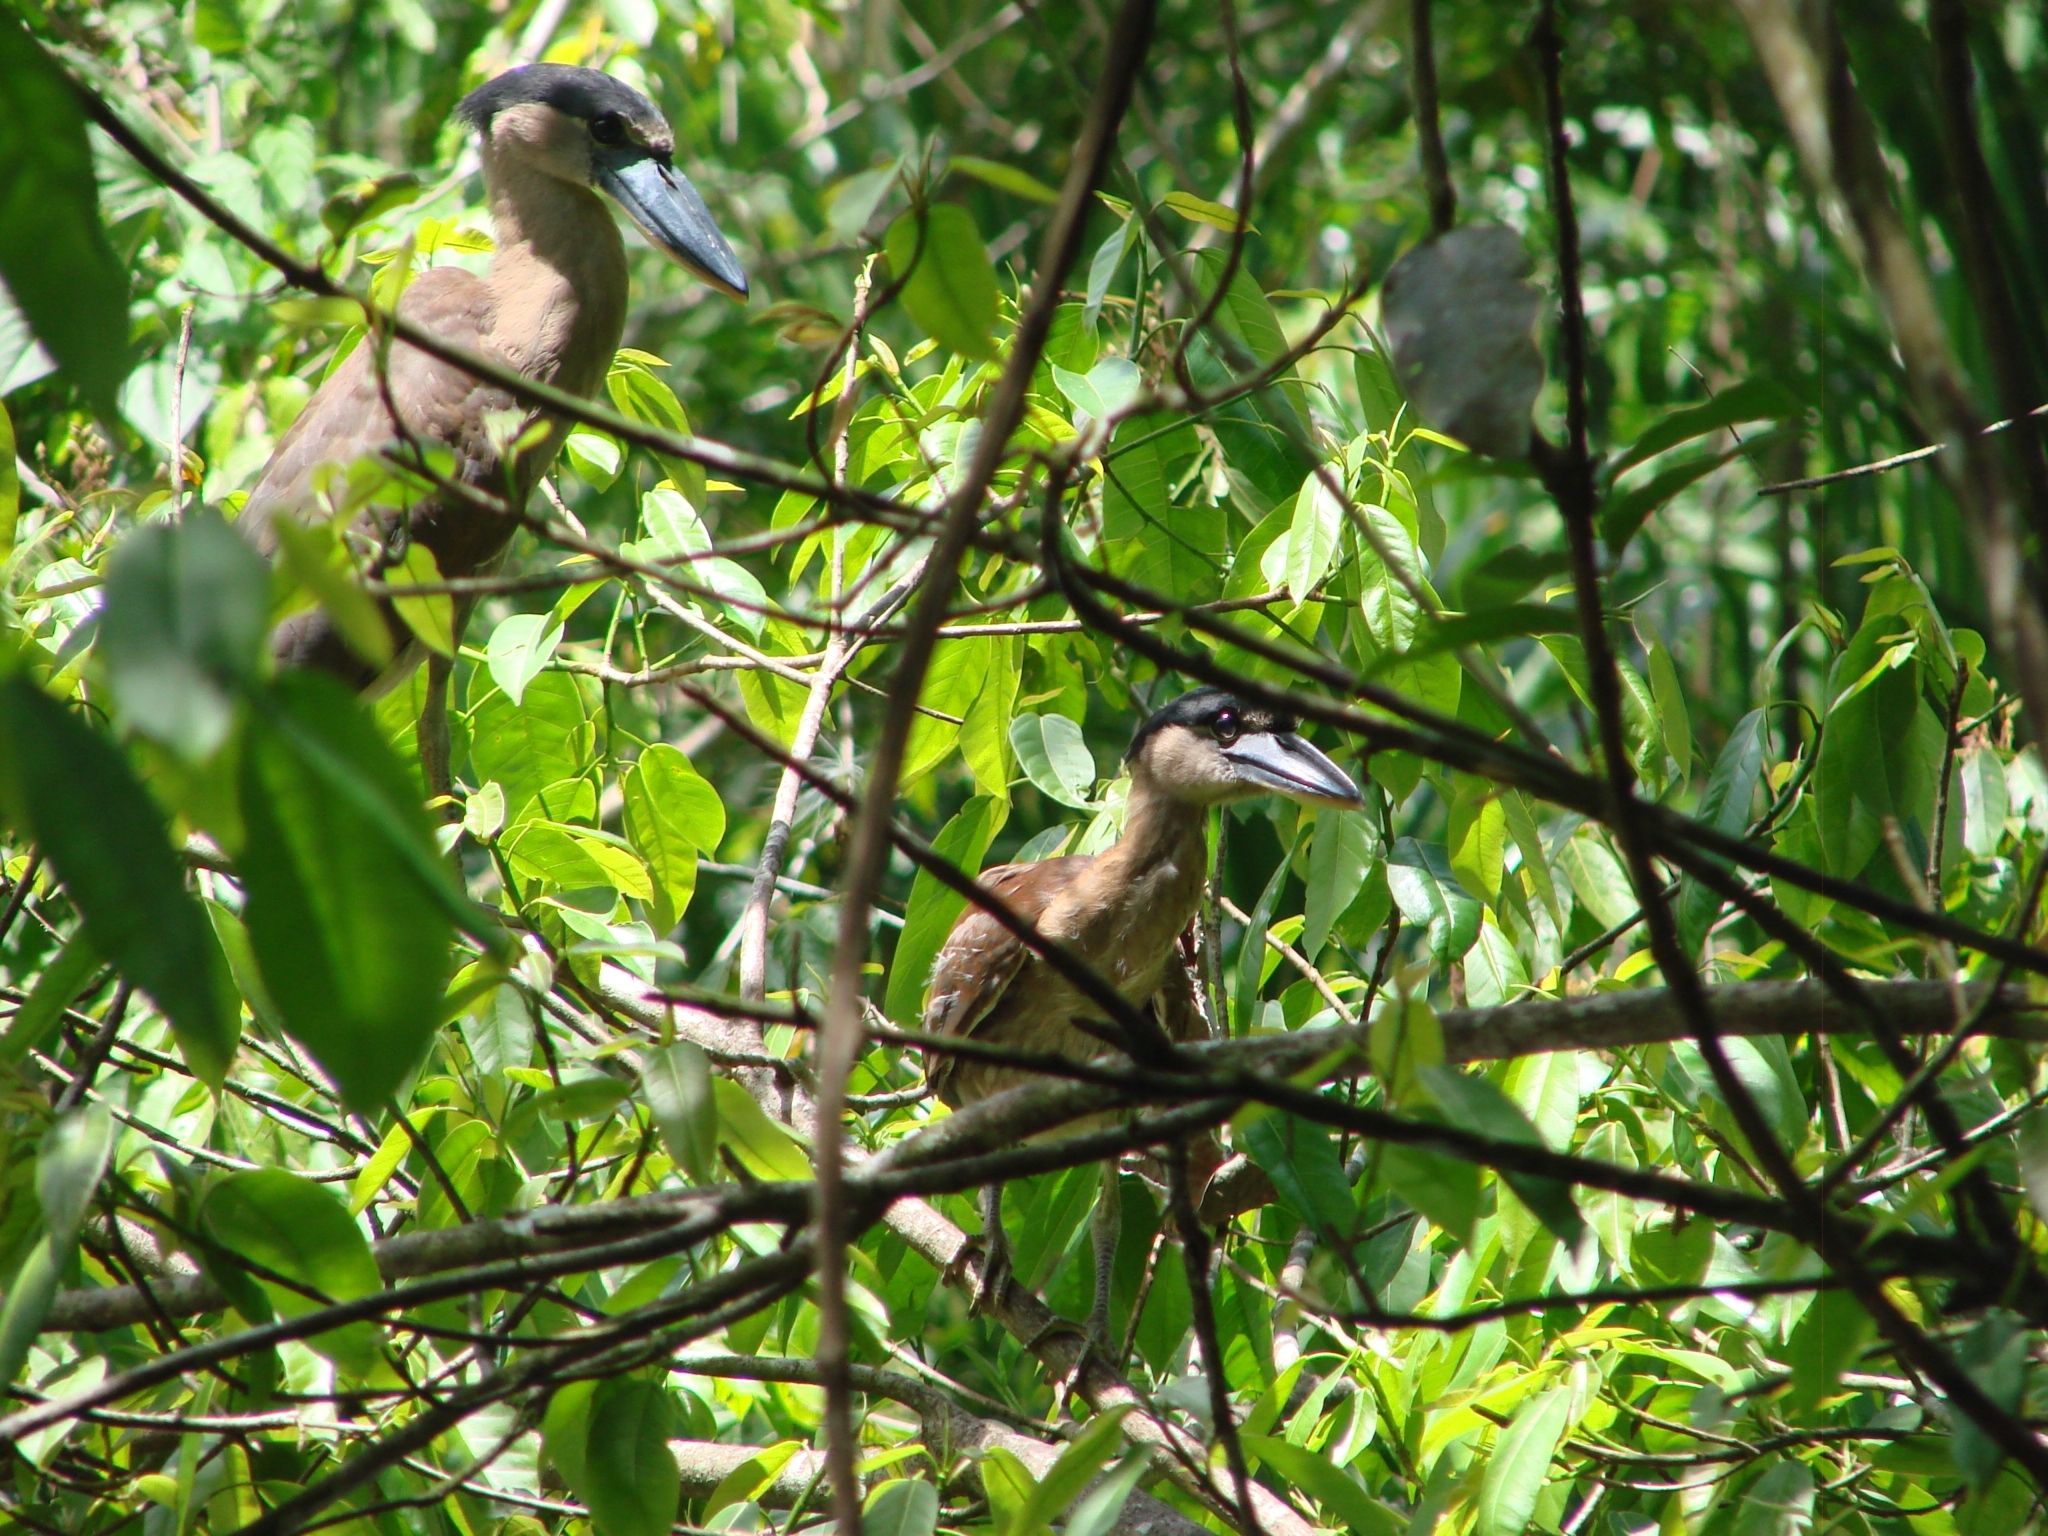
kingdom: Animalia
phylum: Chordata
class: Aves
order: Pelecaniformes
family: Ardeidae
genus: Cochlearius
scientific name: Cochlearius cochlearius
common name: Boat-billed heron
